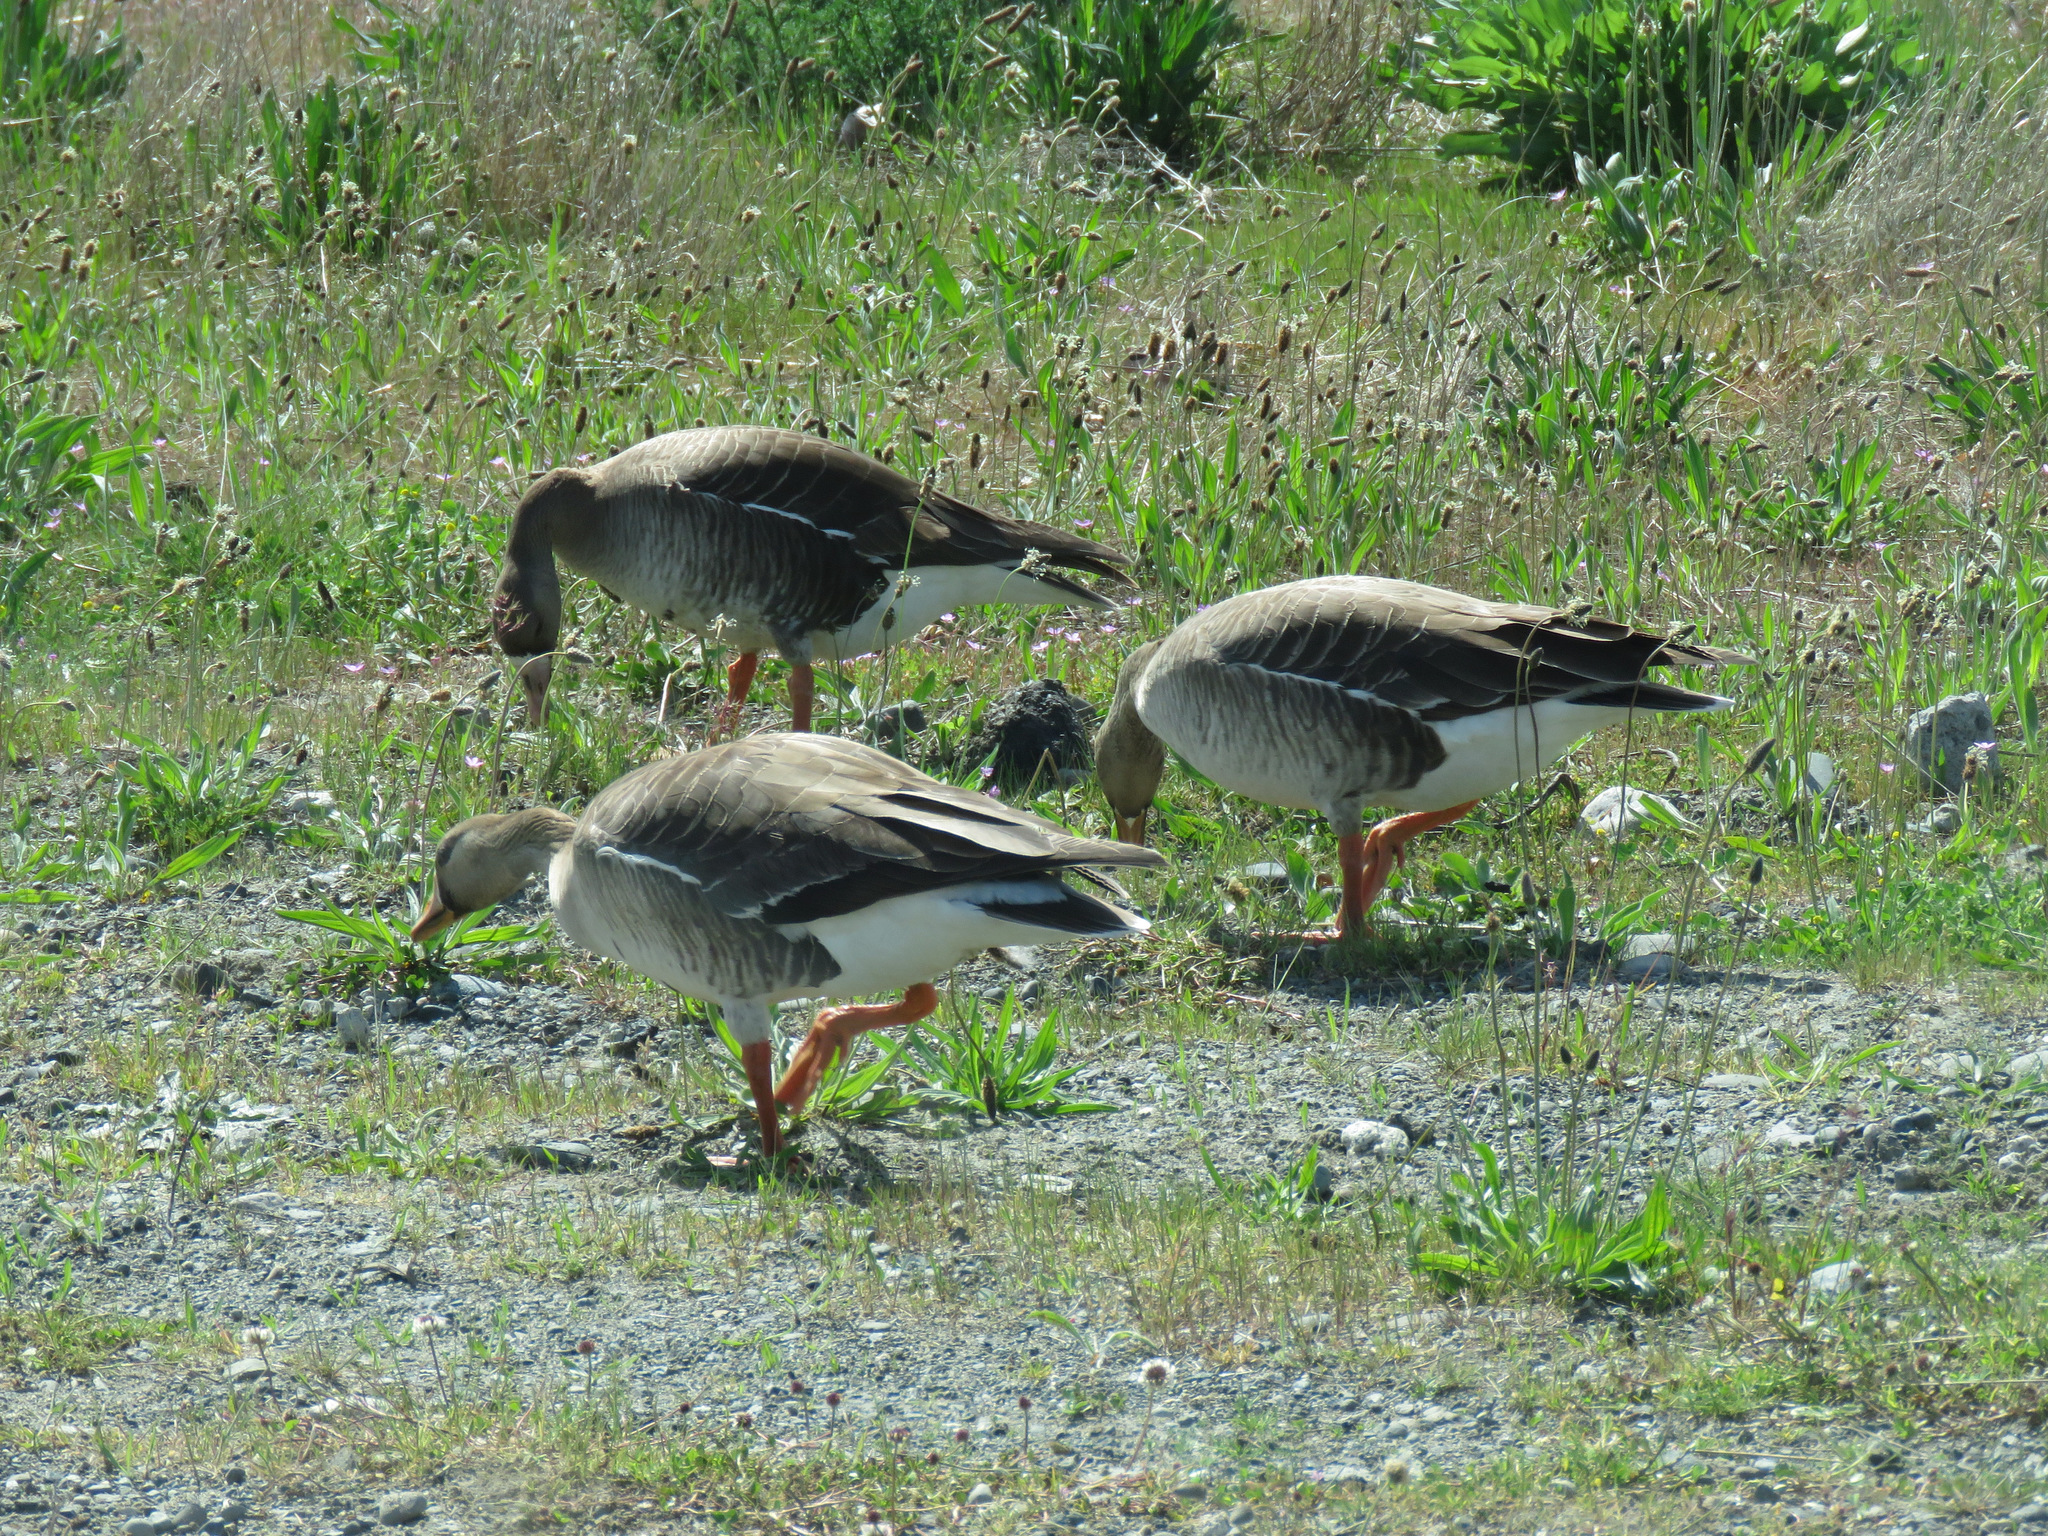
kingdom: Animalia
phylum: Chordata
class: Aves
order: Anseriformes
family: Anatidae
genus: Anser
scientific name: Anser albifrons
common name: Greater white-fronted goose
